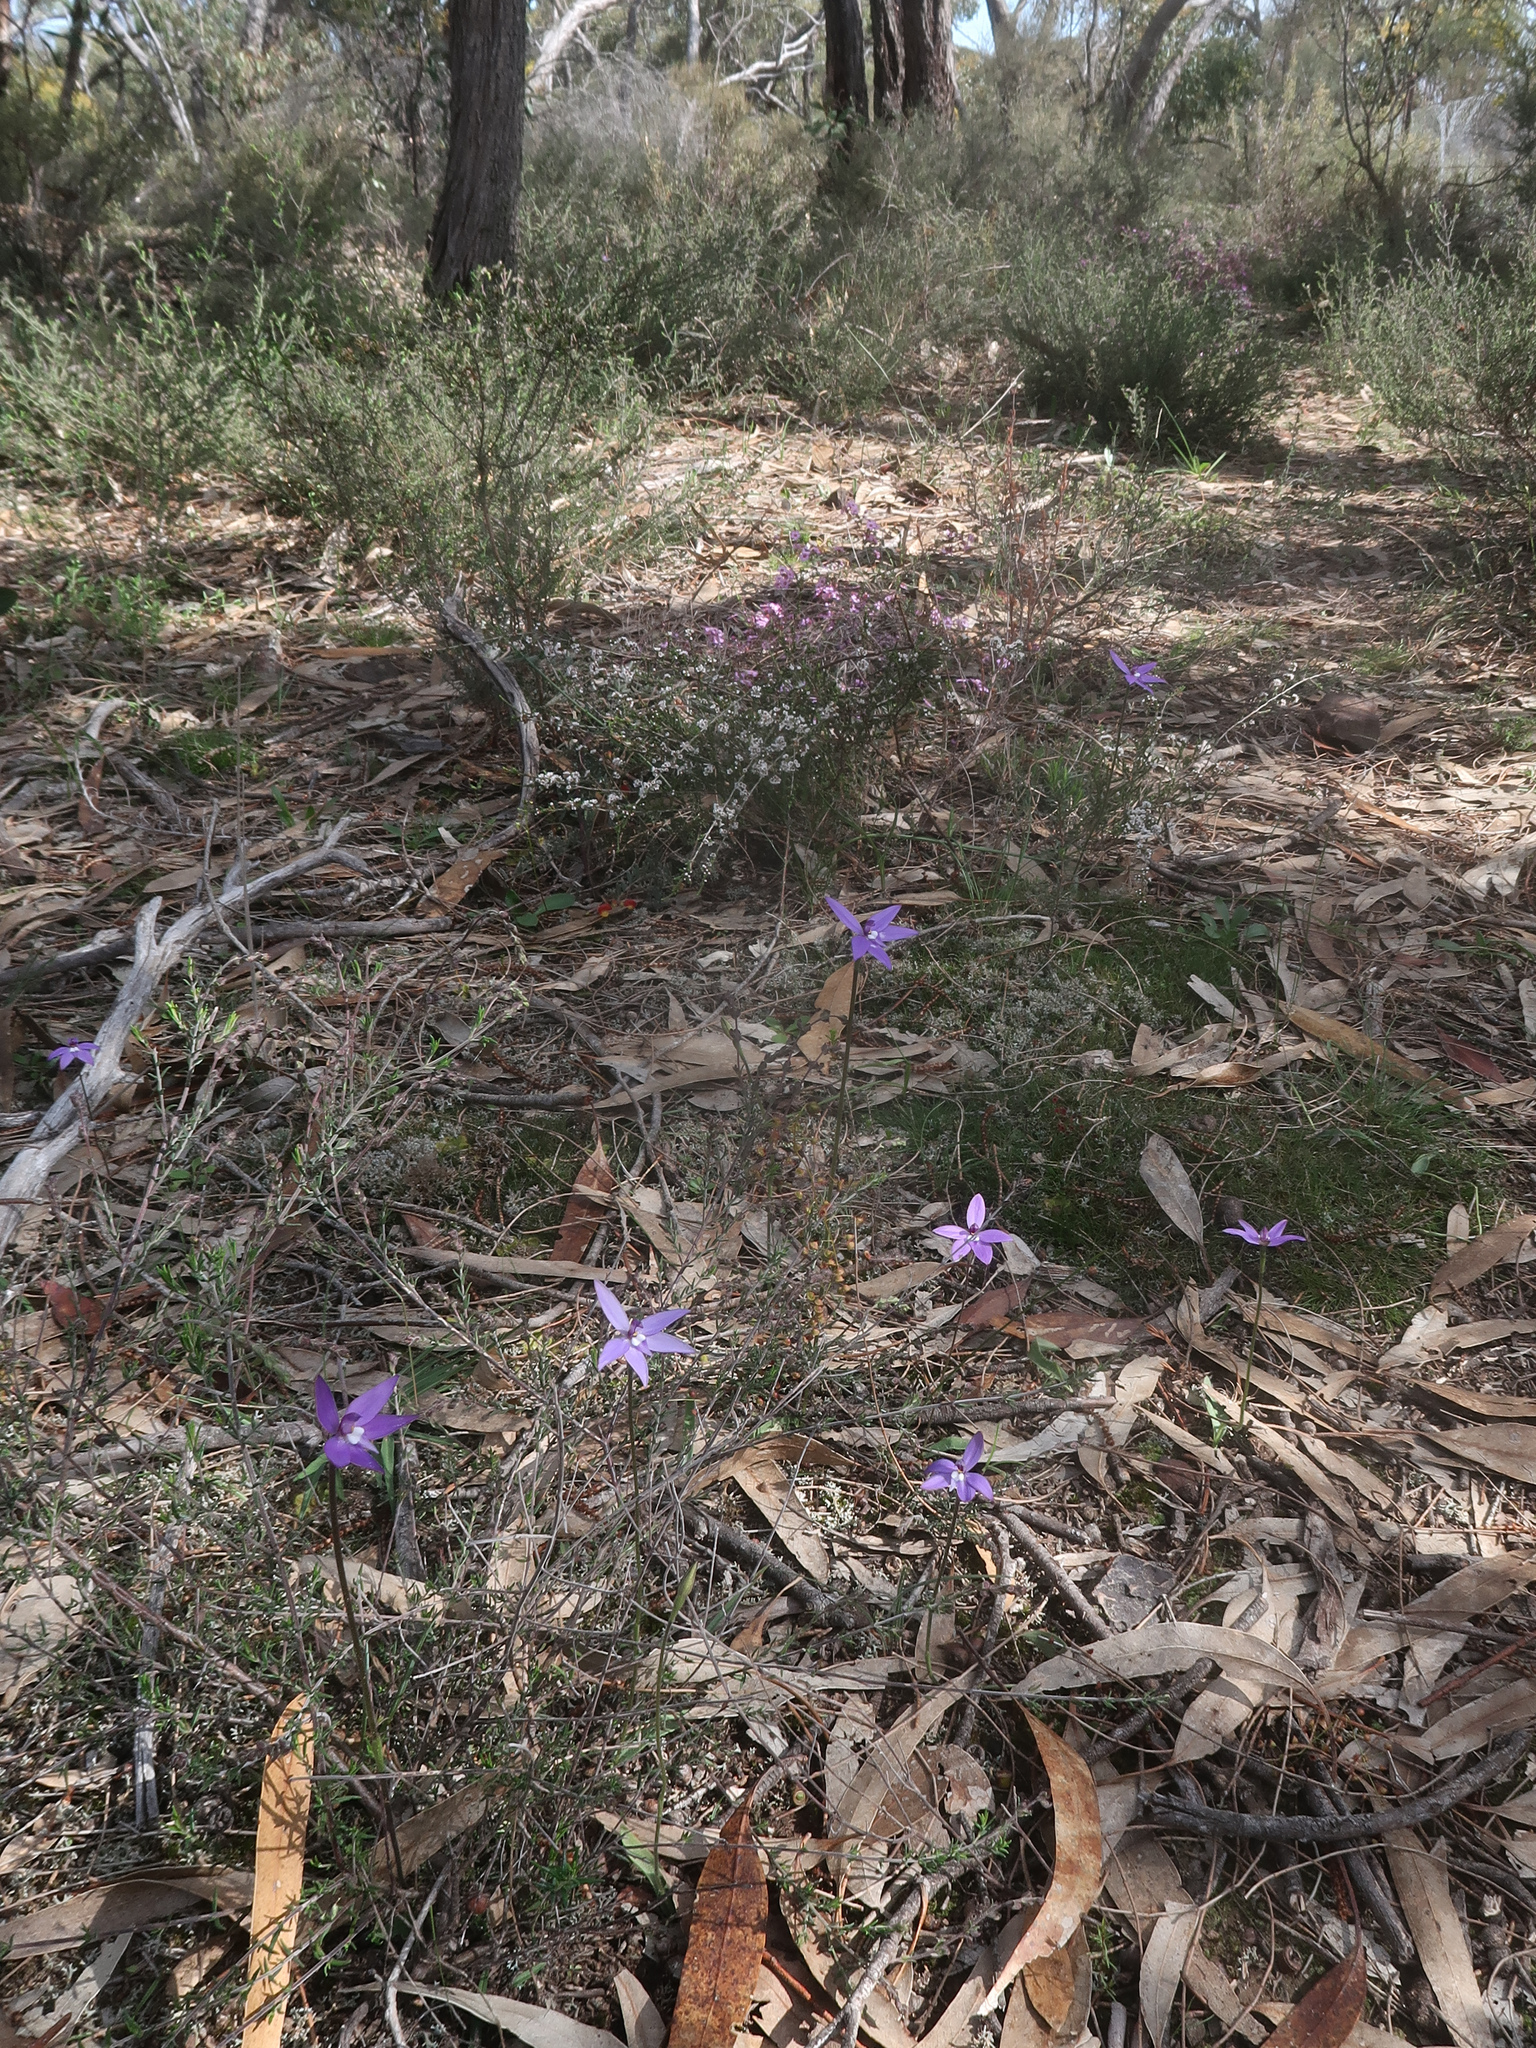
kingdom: Plantae
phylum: Tracheophyta
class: Liliopsida
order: Asparagales
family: Orchidaceae
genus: Caladenia
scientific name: Caladenia major
